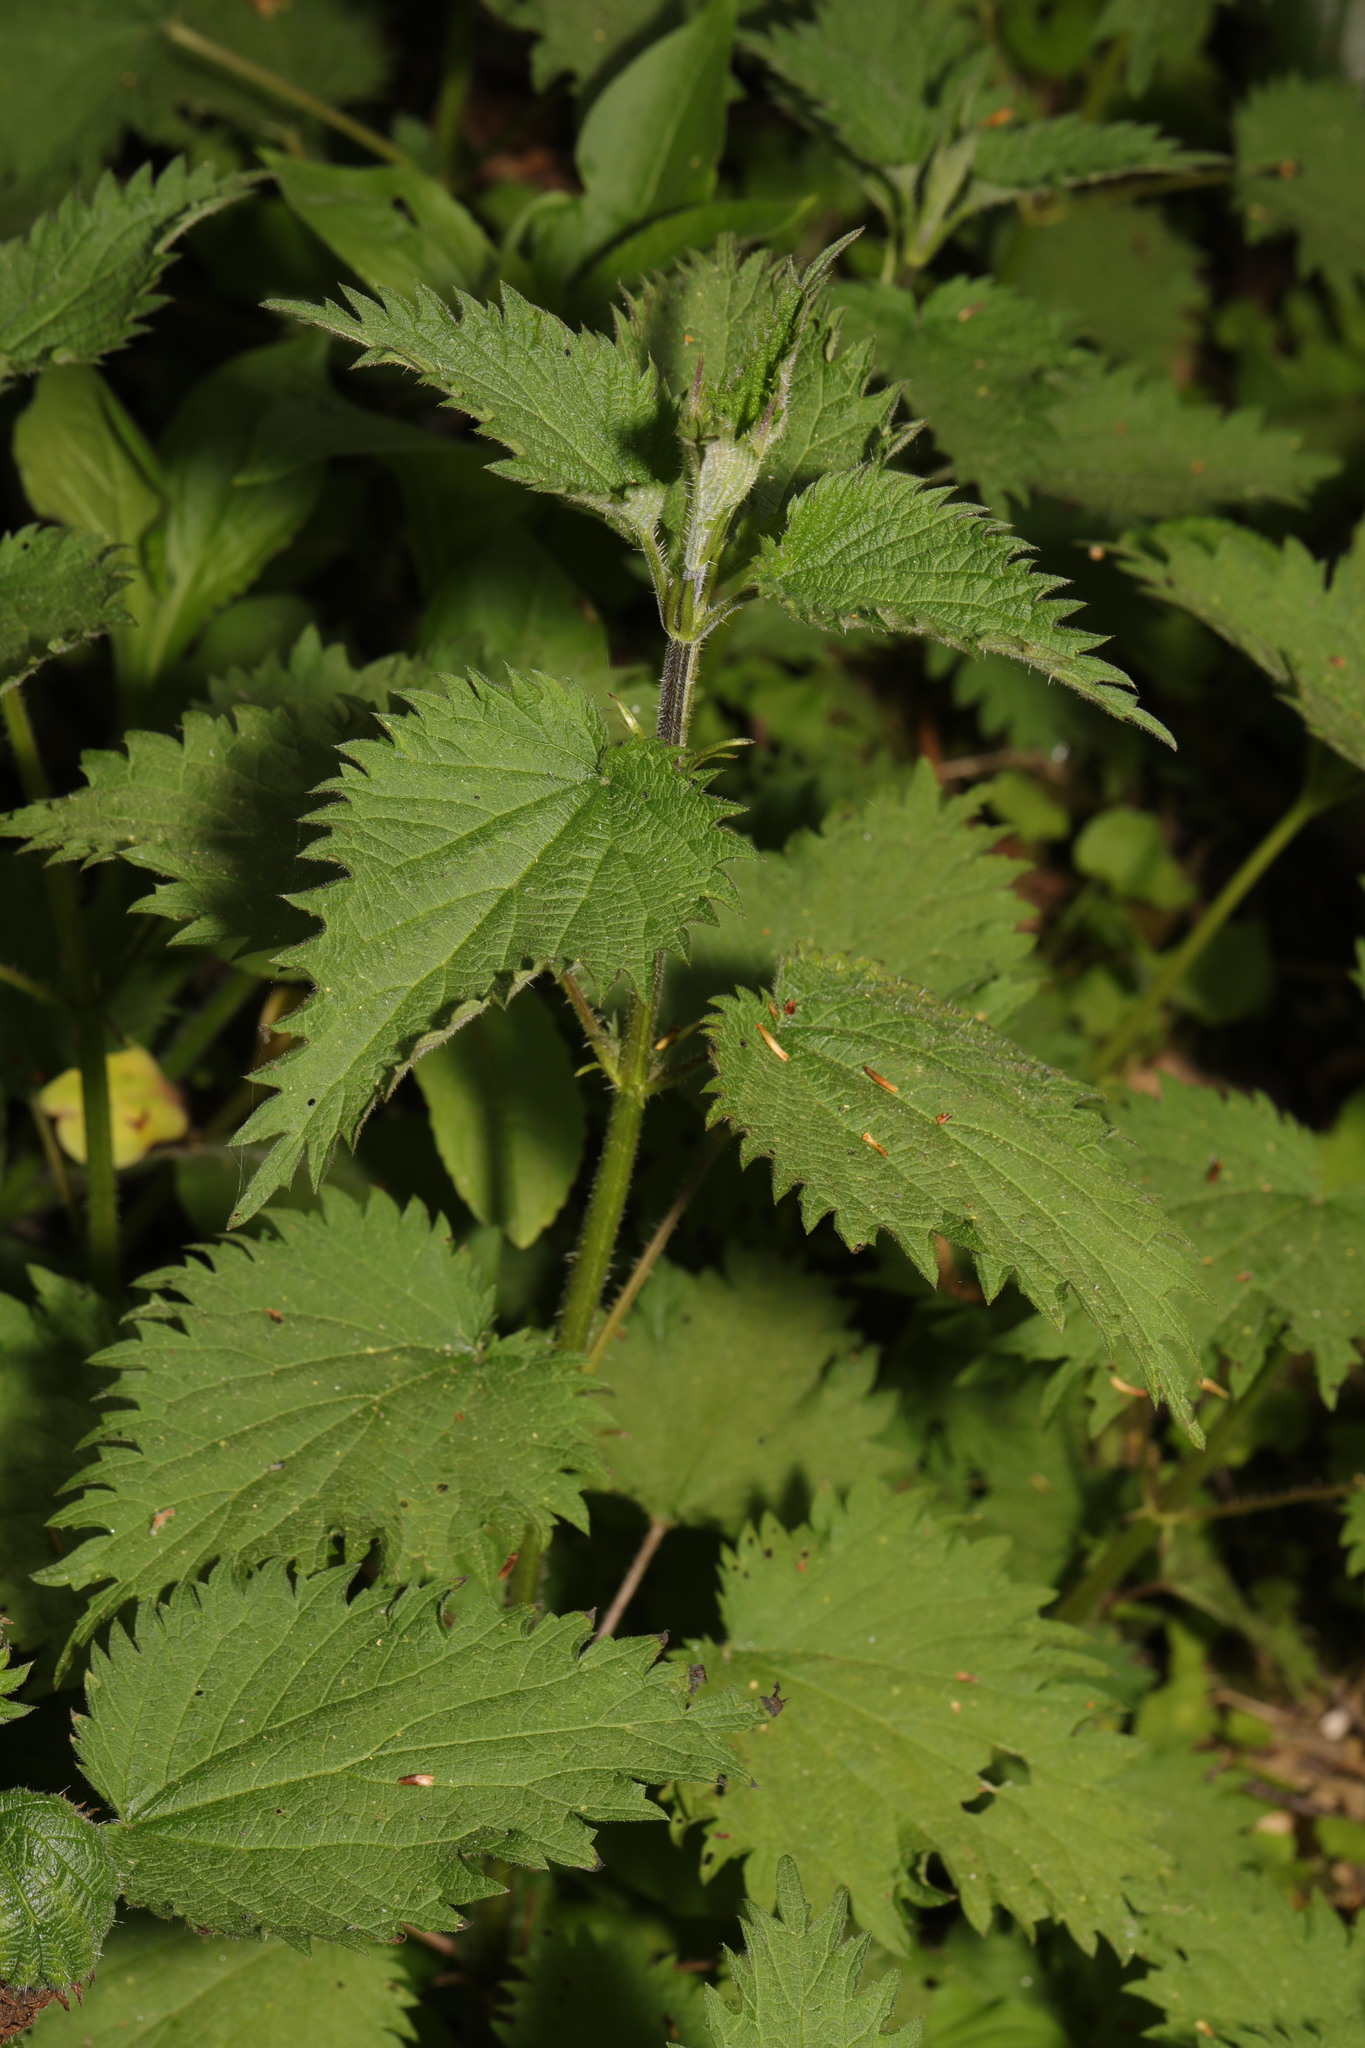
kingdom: Plantae
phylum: Tracheophyta
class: Magnoliopsida
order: Rosales
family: Urticaceae
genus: Urtica
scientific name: Urtica dioica
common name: Common nettle
